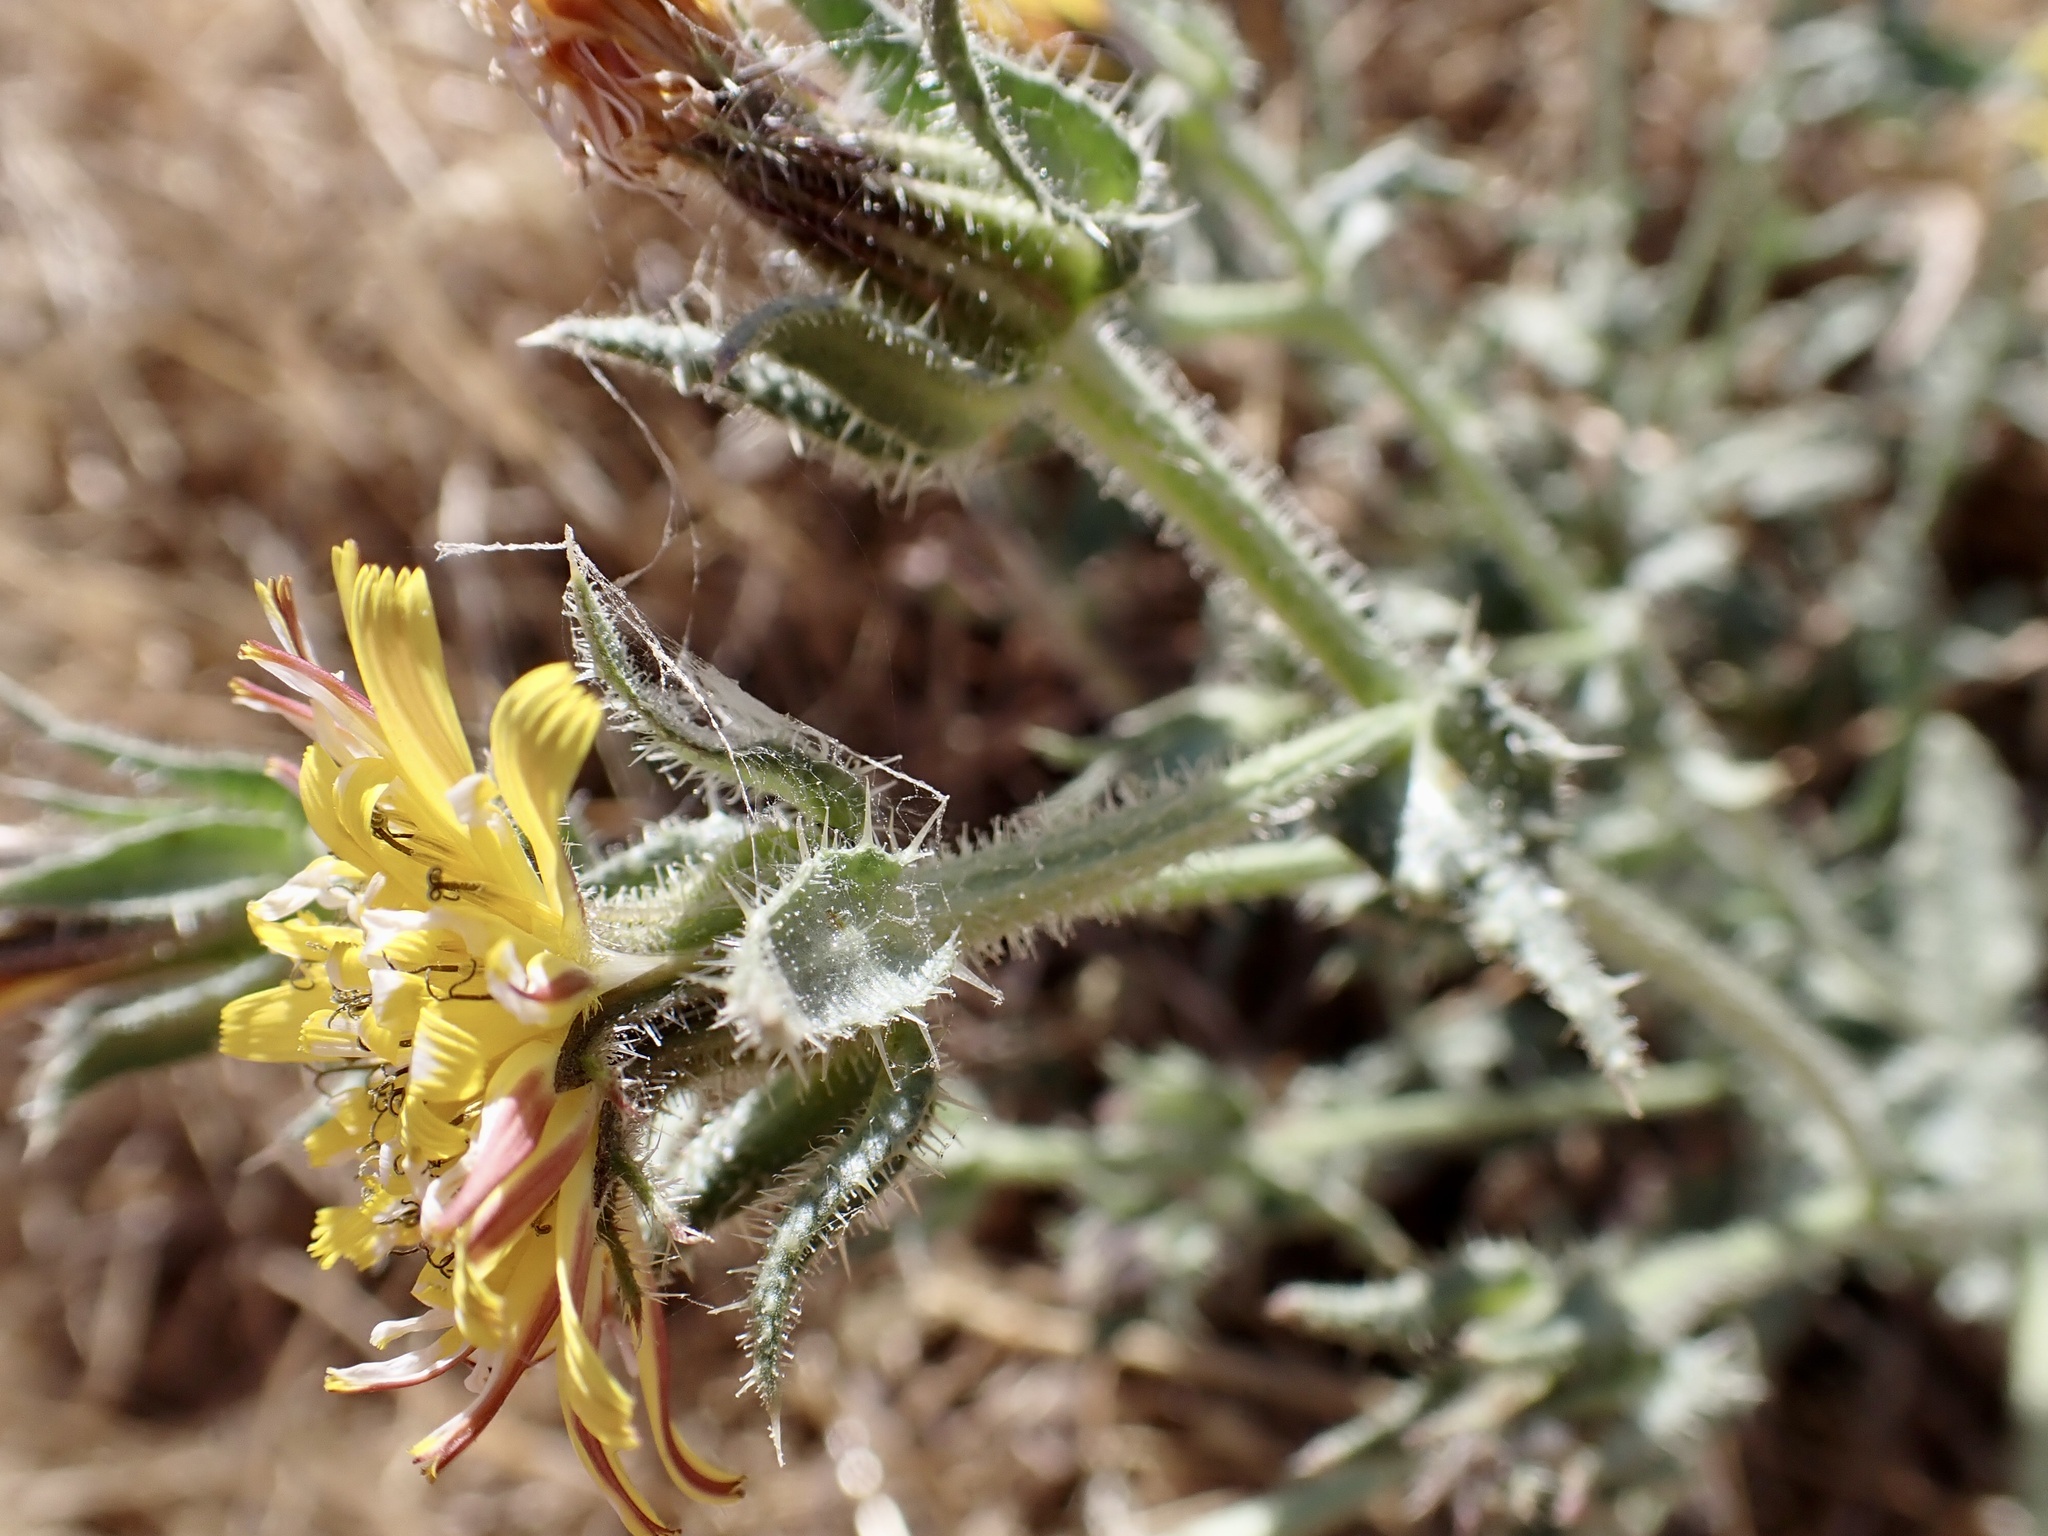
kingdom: Plantae
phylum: Tracheophyta
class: Magnoliopsida
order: Asterales
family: Asteraceae
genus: Helminthotheca
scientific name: Helminthotheca echioides
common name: Ox-tongue
